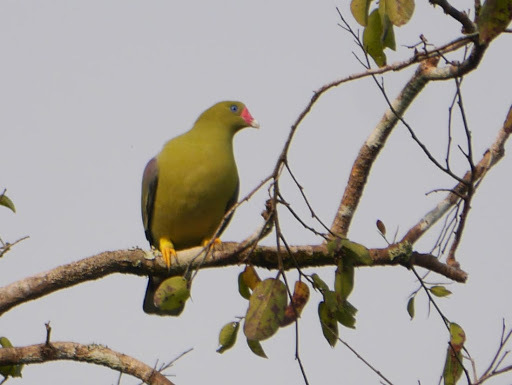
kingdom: Animalia
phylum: Chordata
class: Aves
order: Columbiformes
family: Columbidae
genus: Treron
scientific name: Treron calvus
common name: African green pigeon
